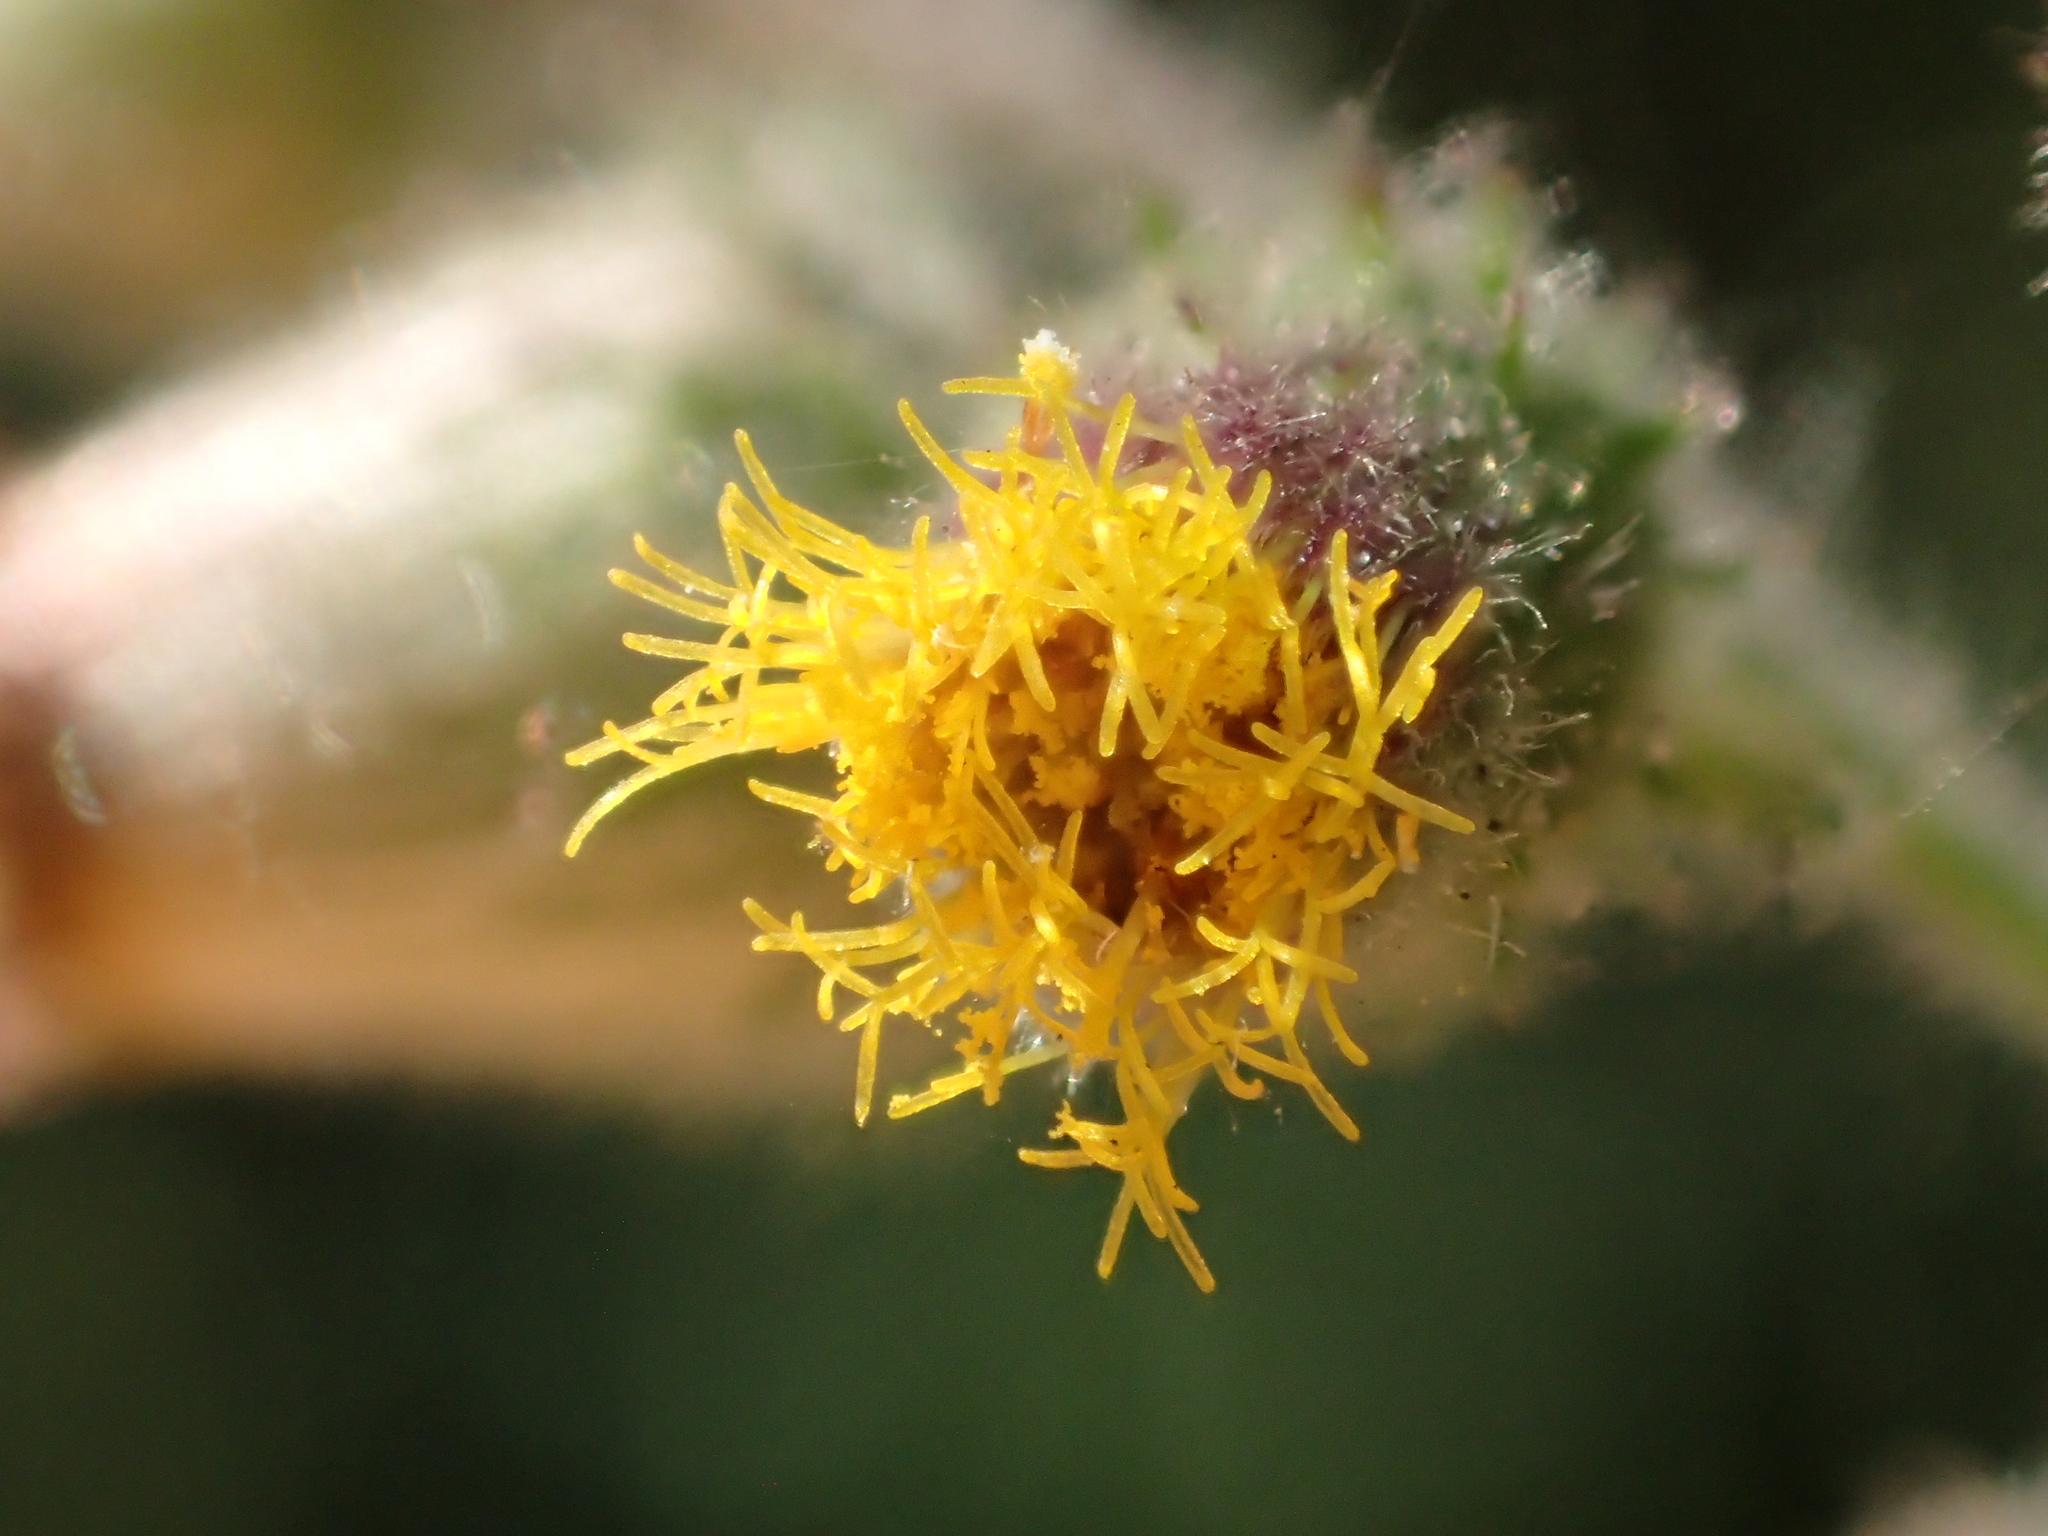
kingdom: Plantae
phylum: Tracheophyta
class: Magnoliopsida
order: Asterales
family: Asteraceae
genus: Blumea
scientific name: Blumea sinuata
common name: Cutleaf false oxtongue
